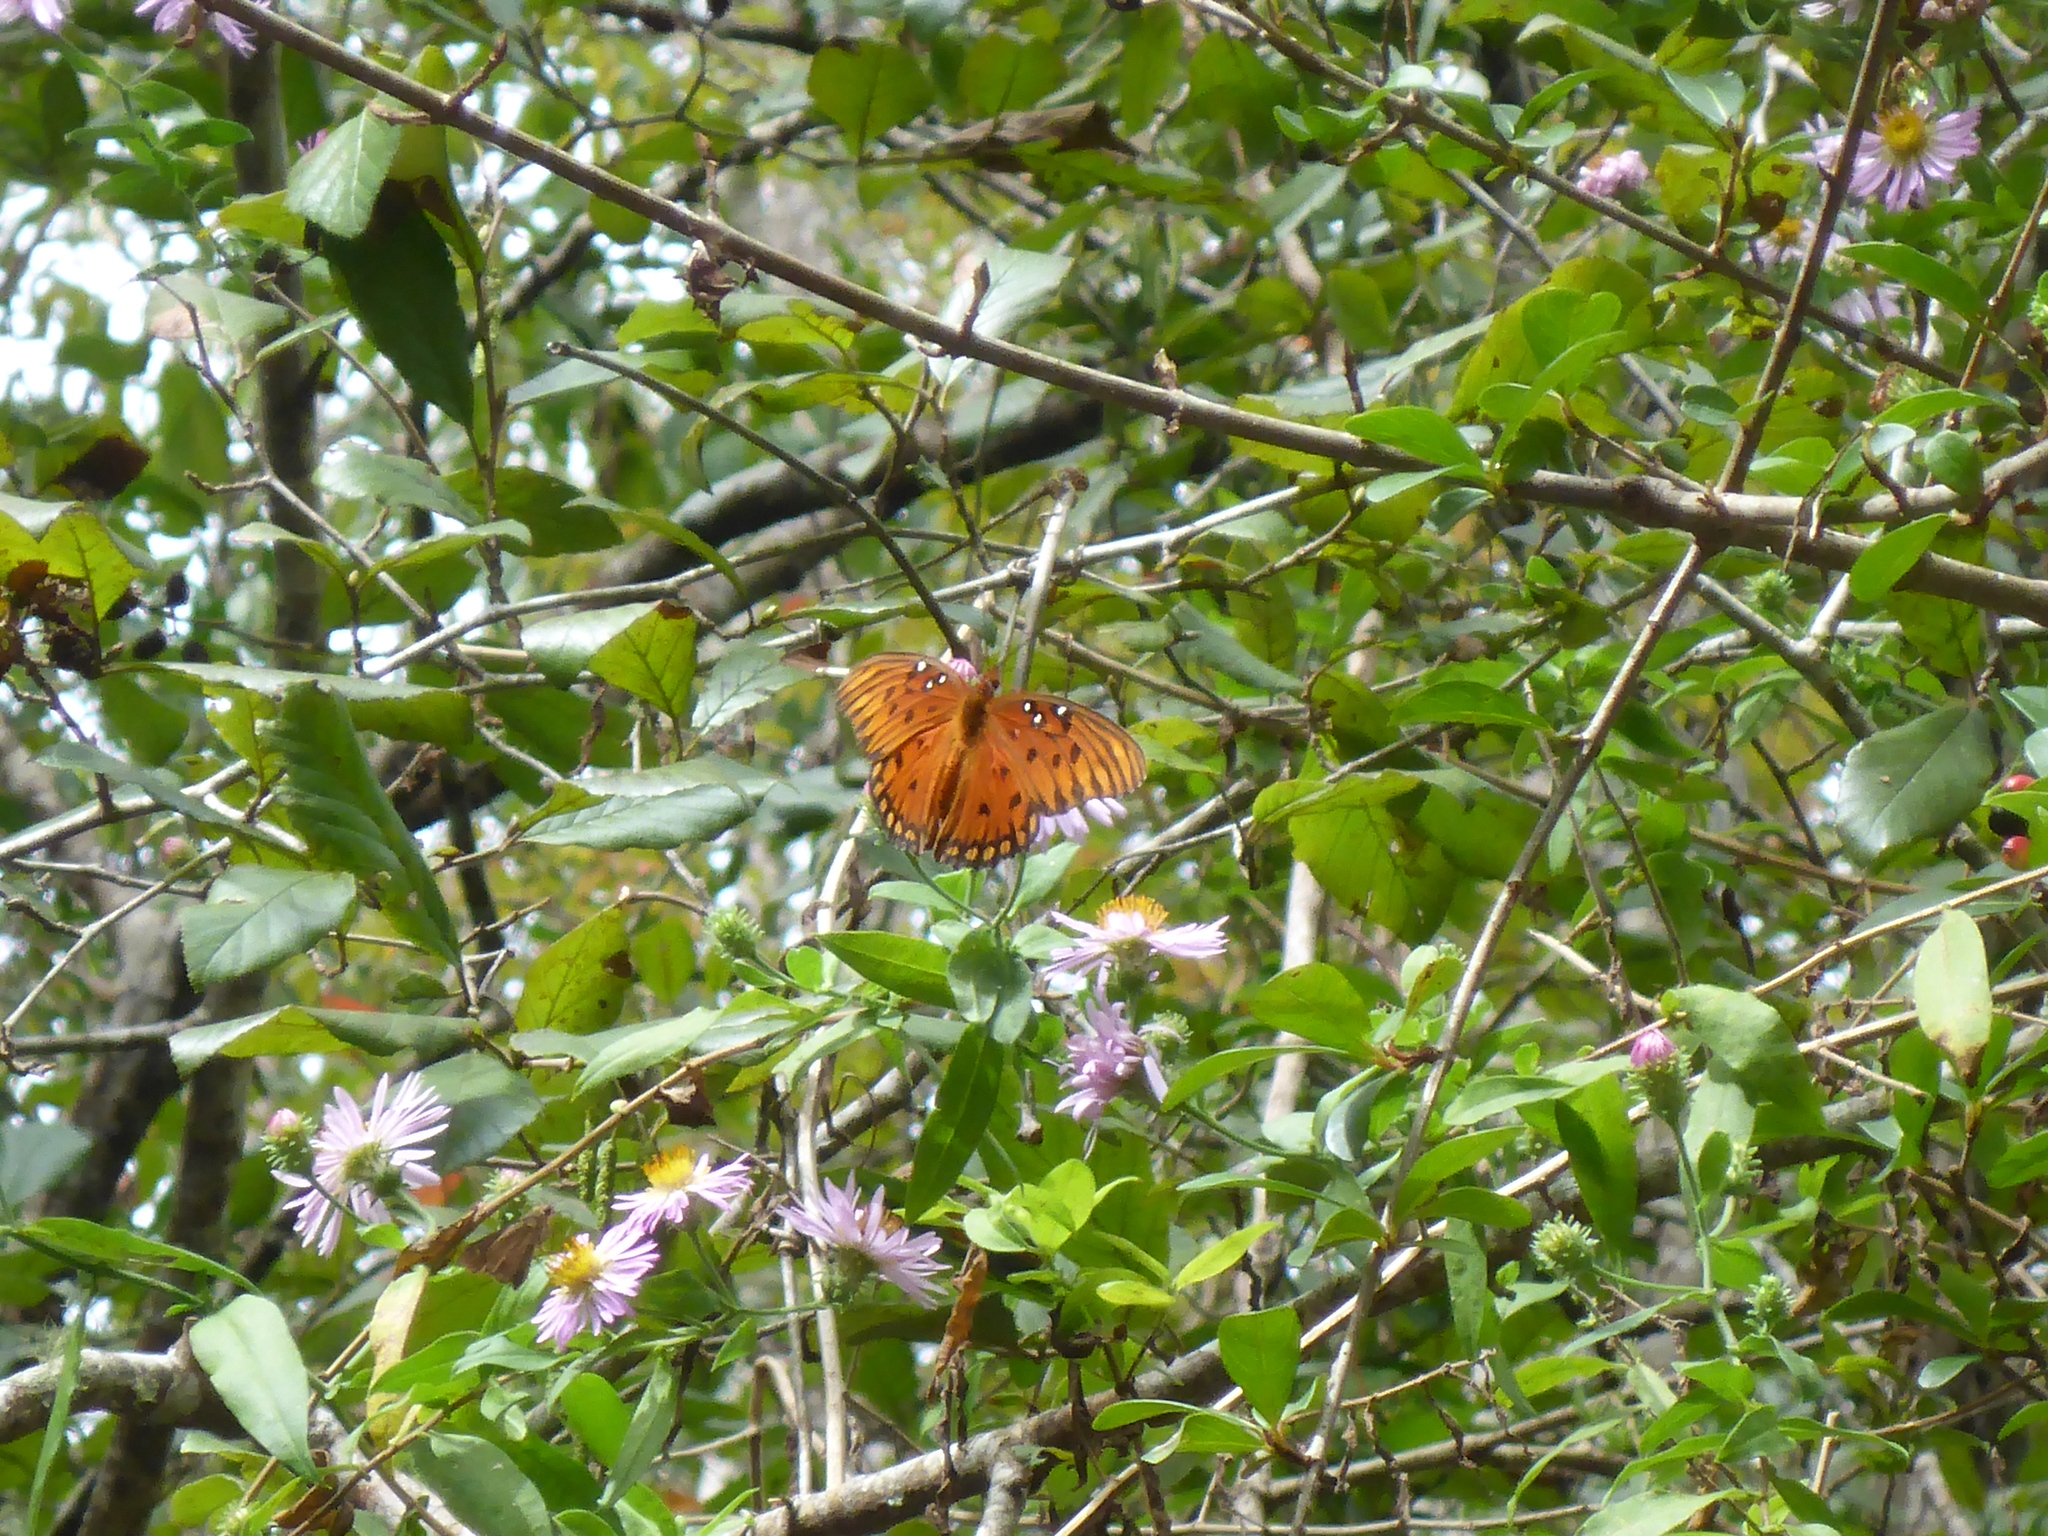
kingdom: Animalia
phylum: Arthropoda
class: Insecta
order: Lepidoptera
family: Nymphalidae
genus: Dione
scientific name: Dione vanillae
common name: Gulf fritillary
